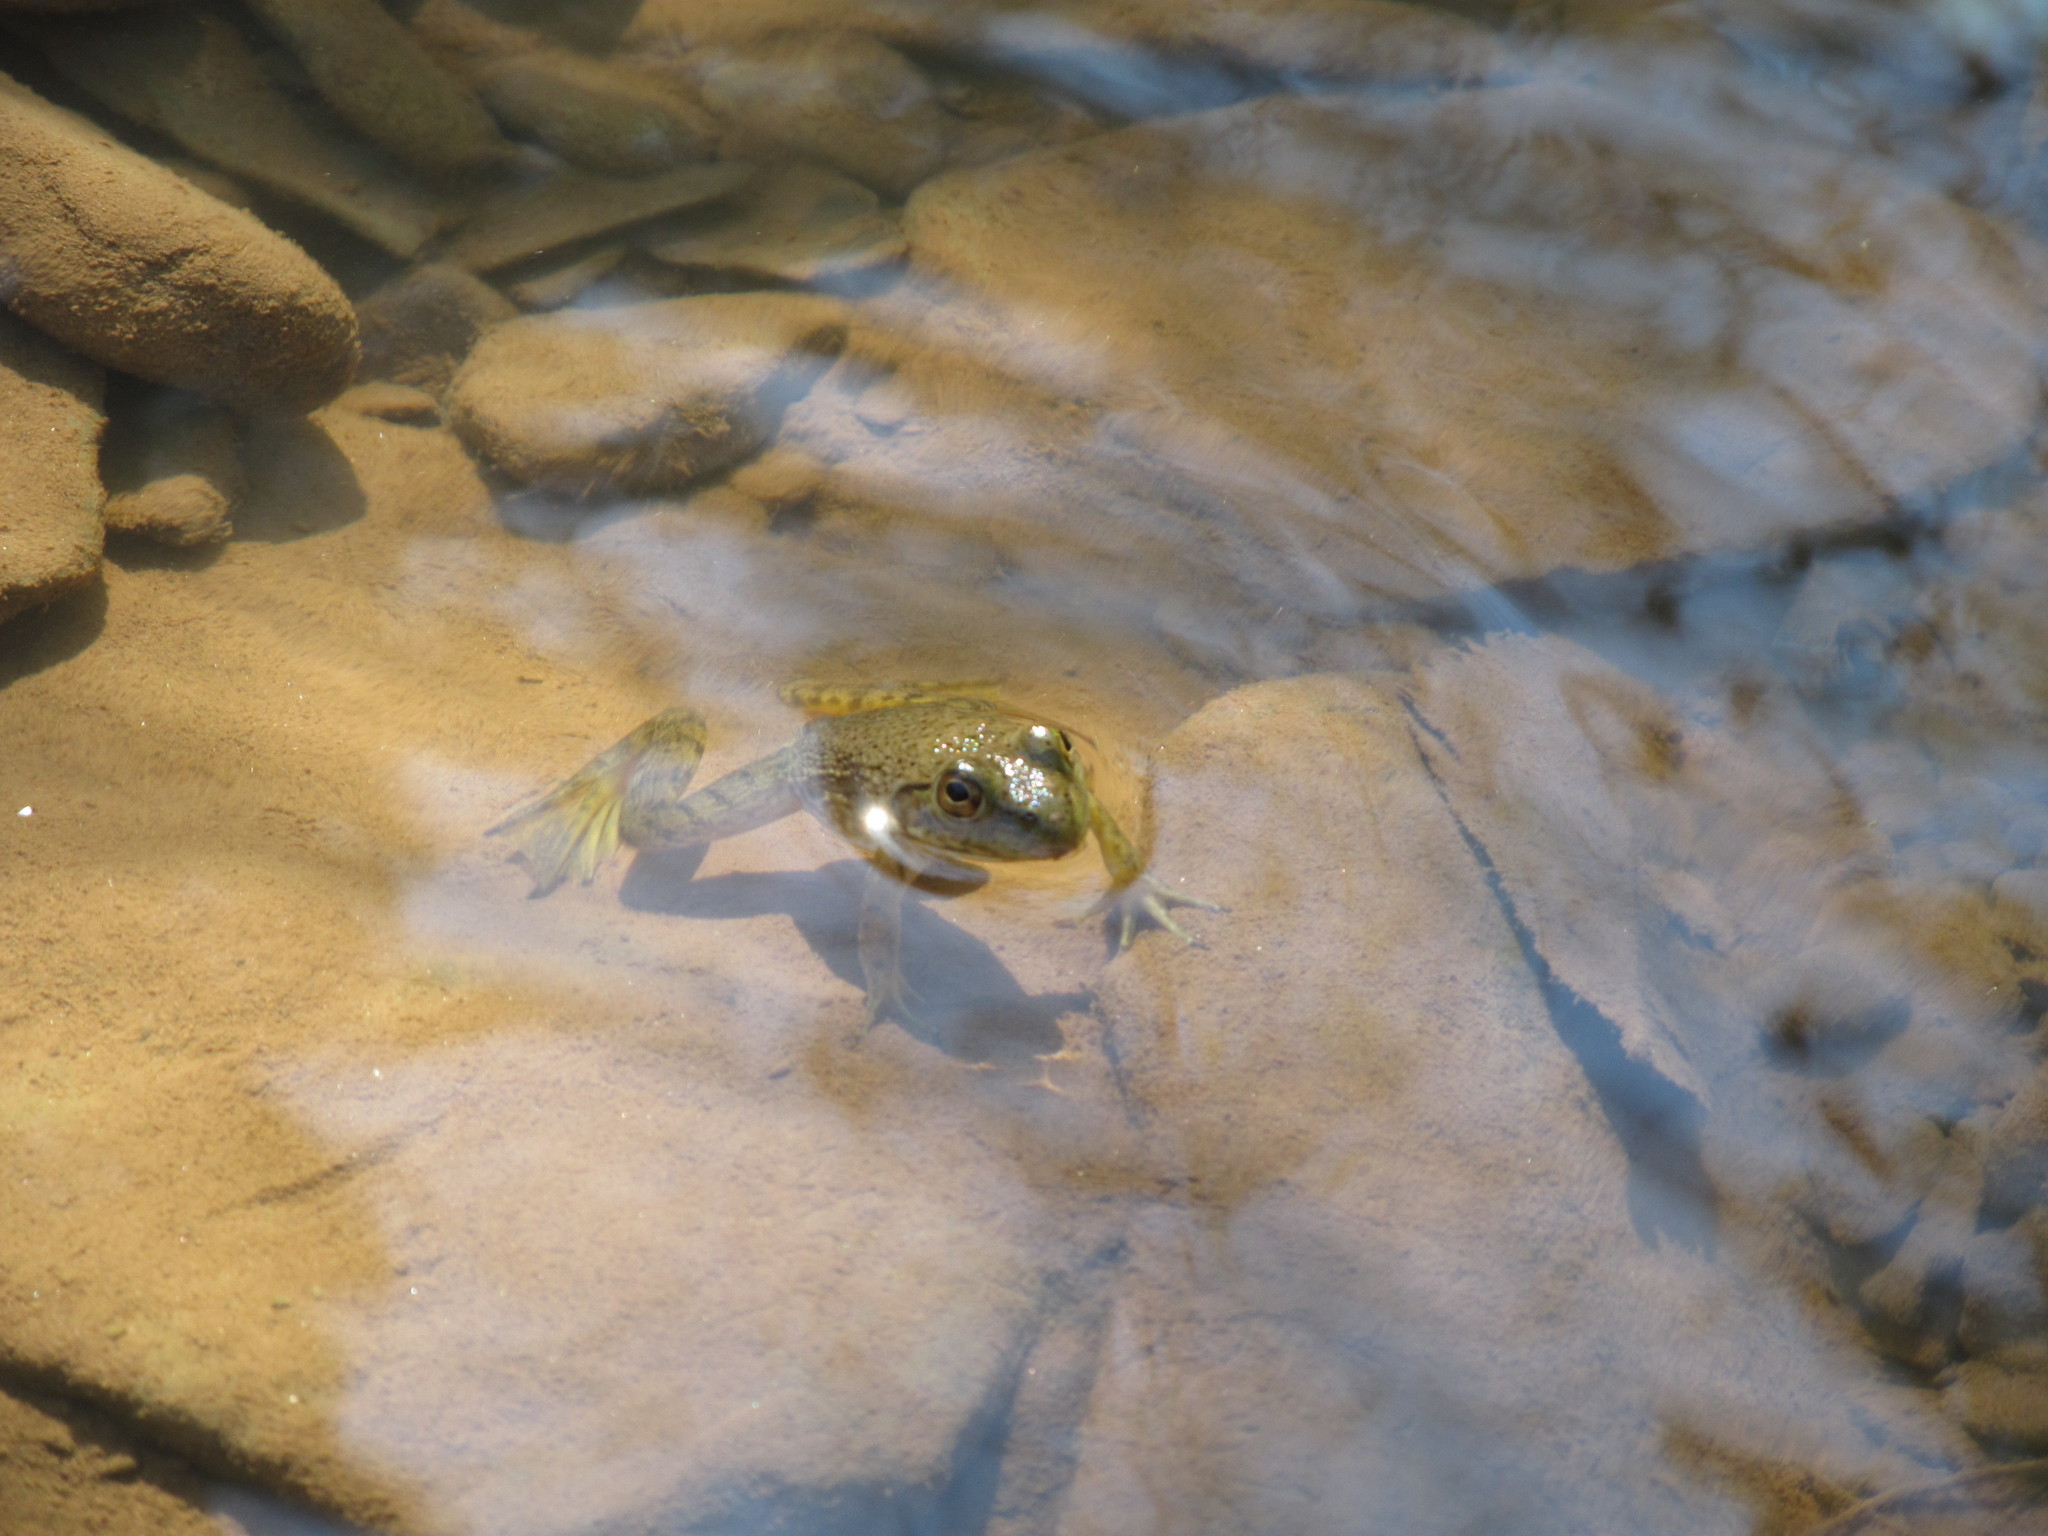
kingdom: Animalia
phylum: Chordata
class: Amphibia
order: Anura
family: Ranidae
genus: Lithobates
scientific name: Lithobates catesbeianus
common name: American bullfrog
